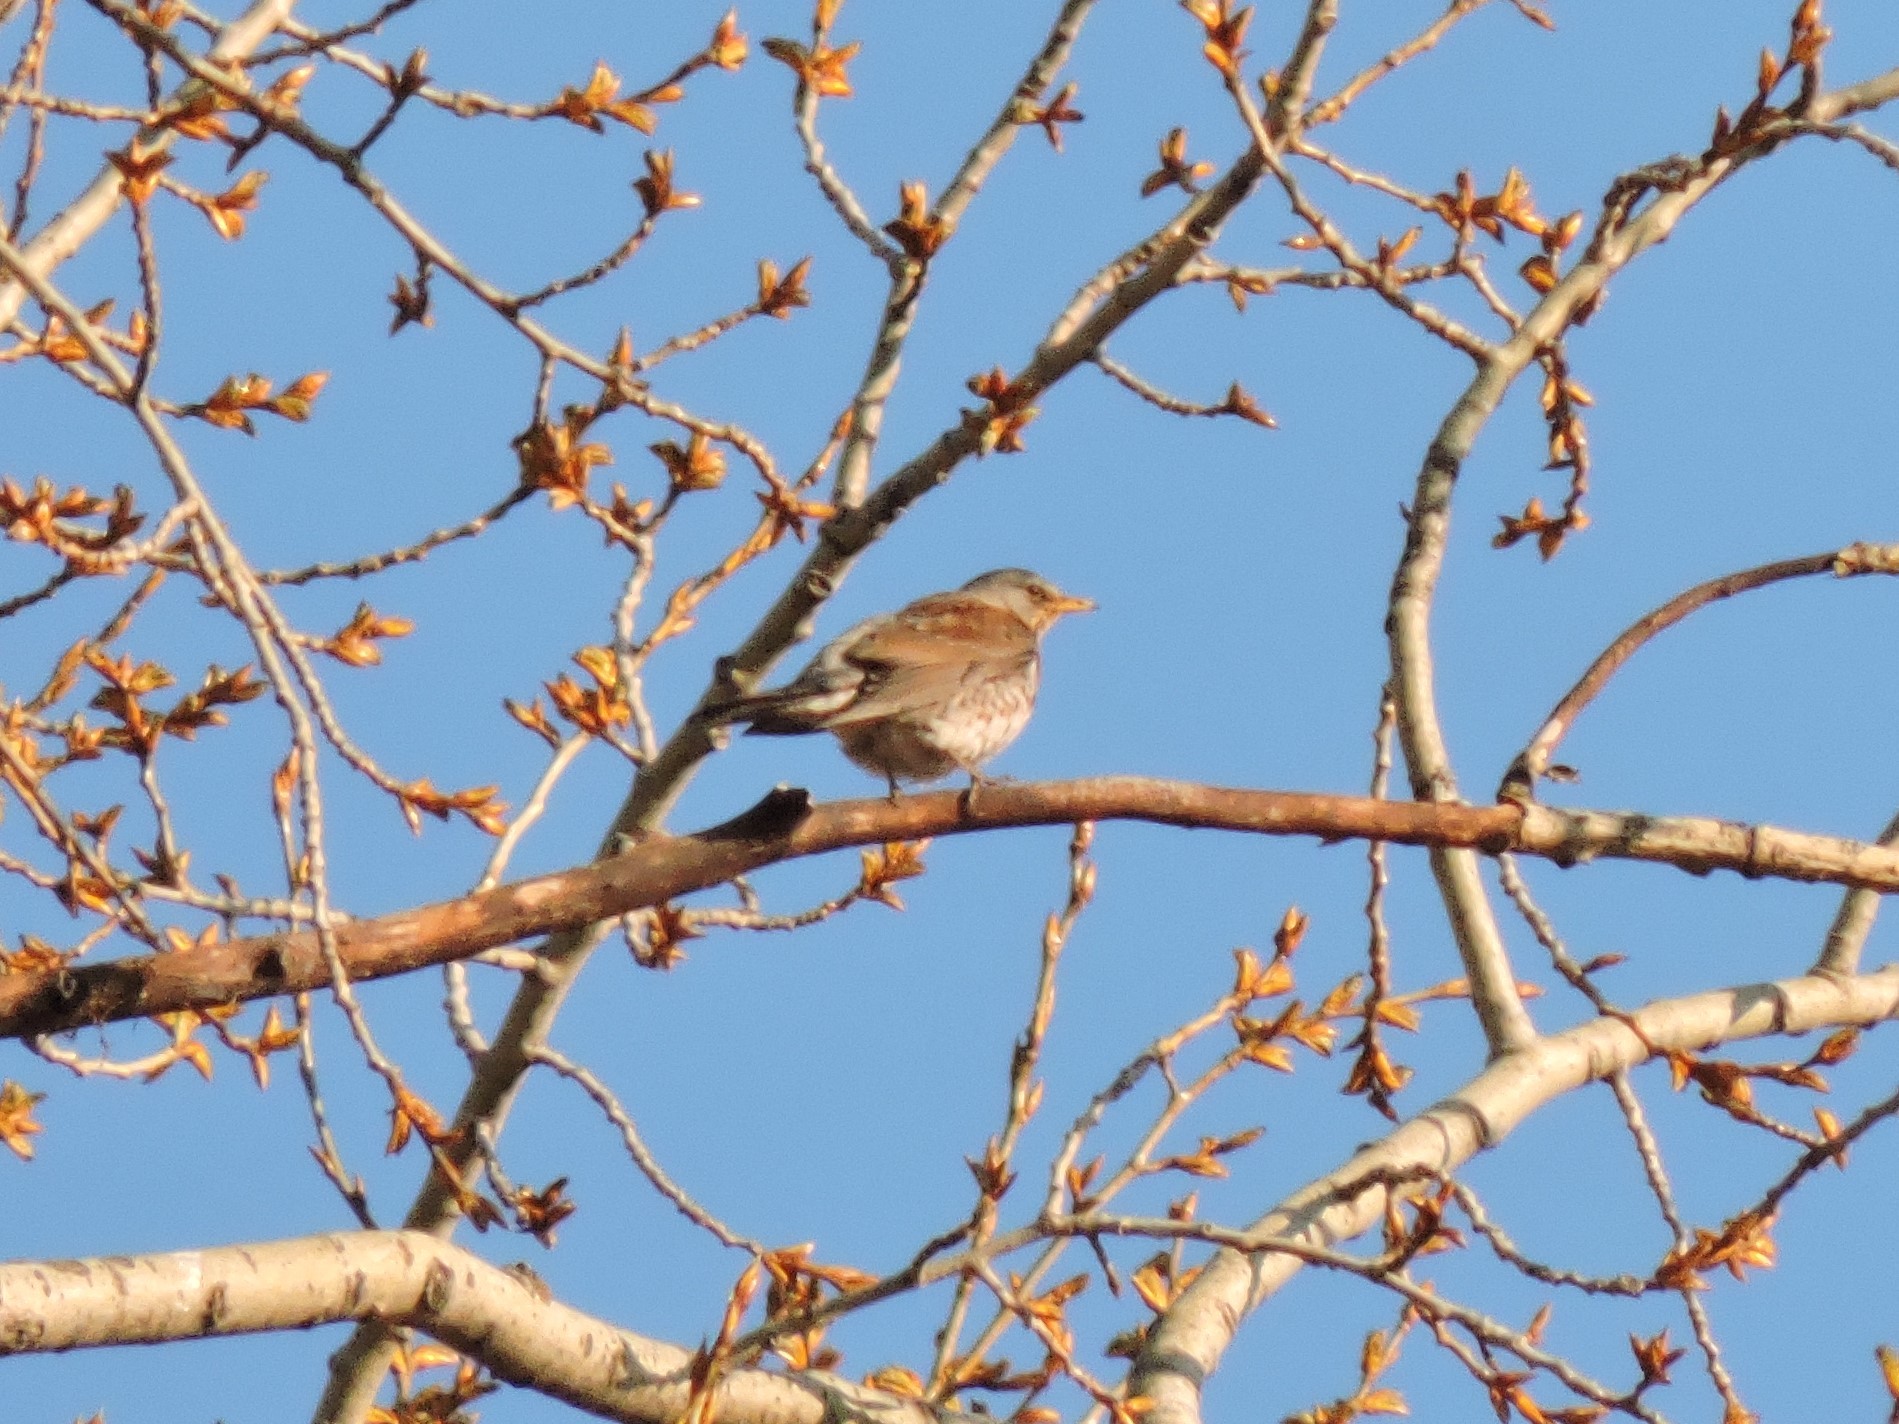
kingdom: Animalia
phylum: Chordata
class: Aves
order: Passeriformes
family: Turdidae
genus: Turdus
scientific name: Turdus pilaris
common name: Fieldfare
